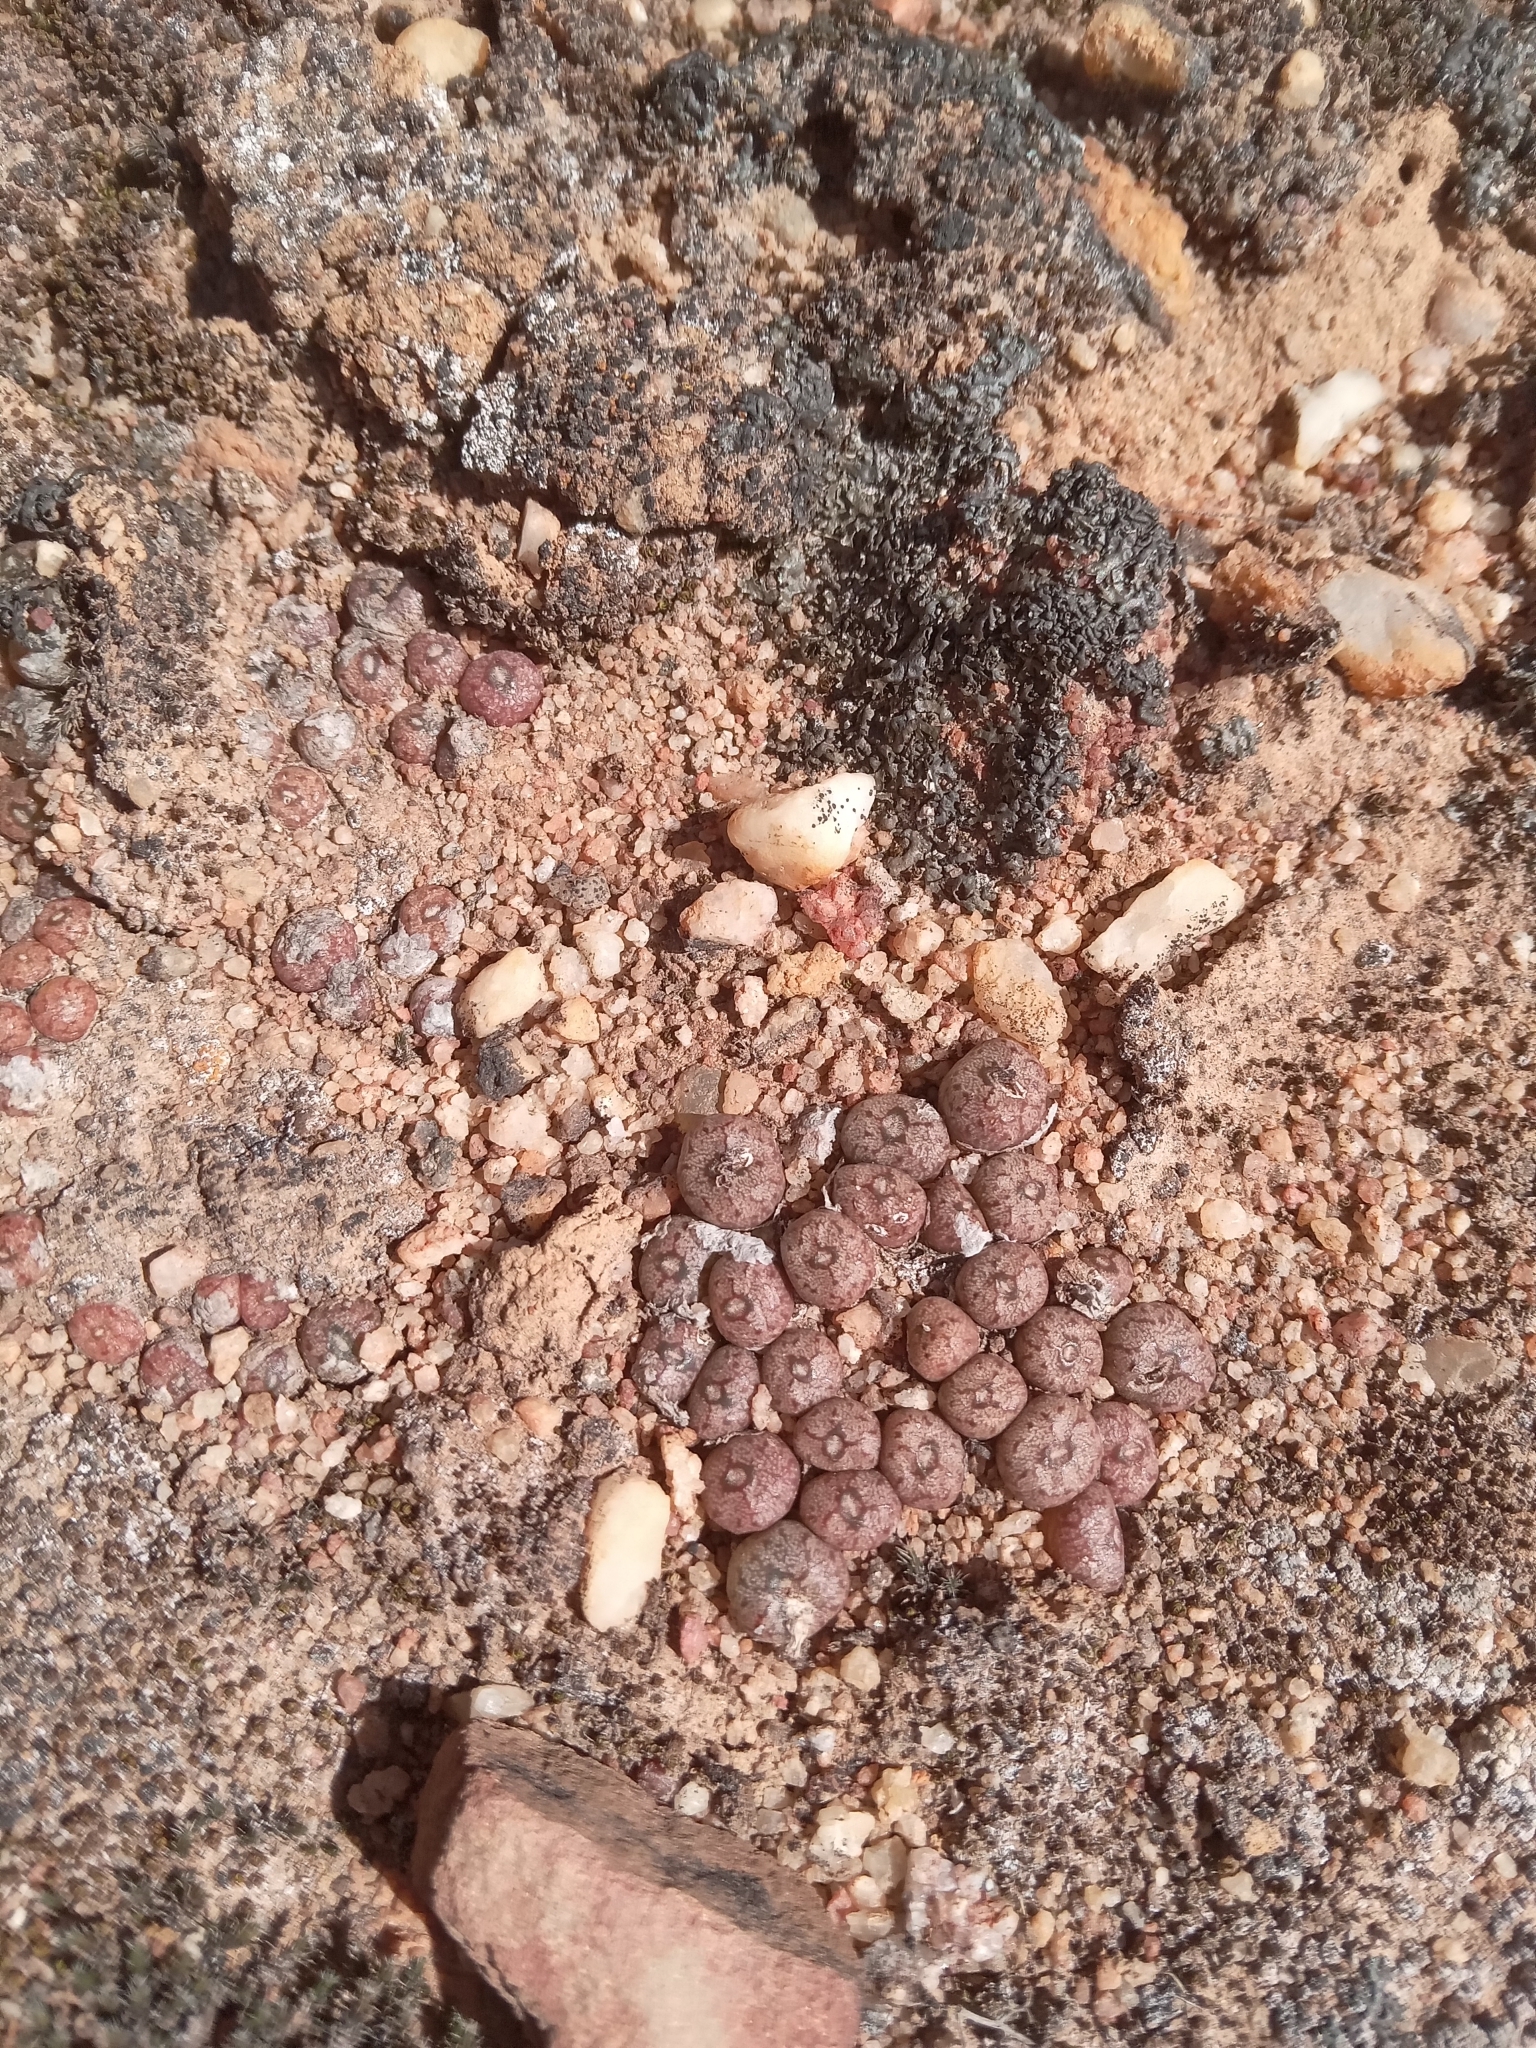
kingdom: Plantae
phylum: Tracheophyta
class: Magnoliopsida
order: Caryophyllales
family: Aizoaceae
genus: Conophytum
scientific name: Conophytum swanepoelianum
